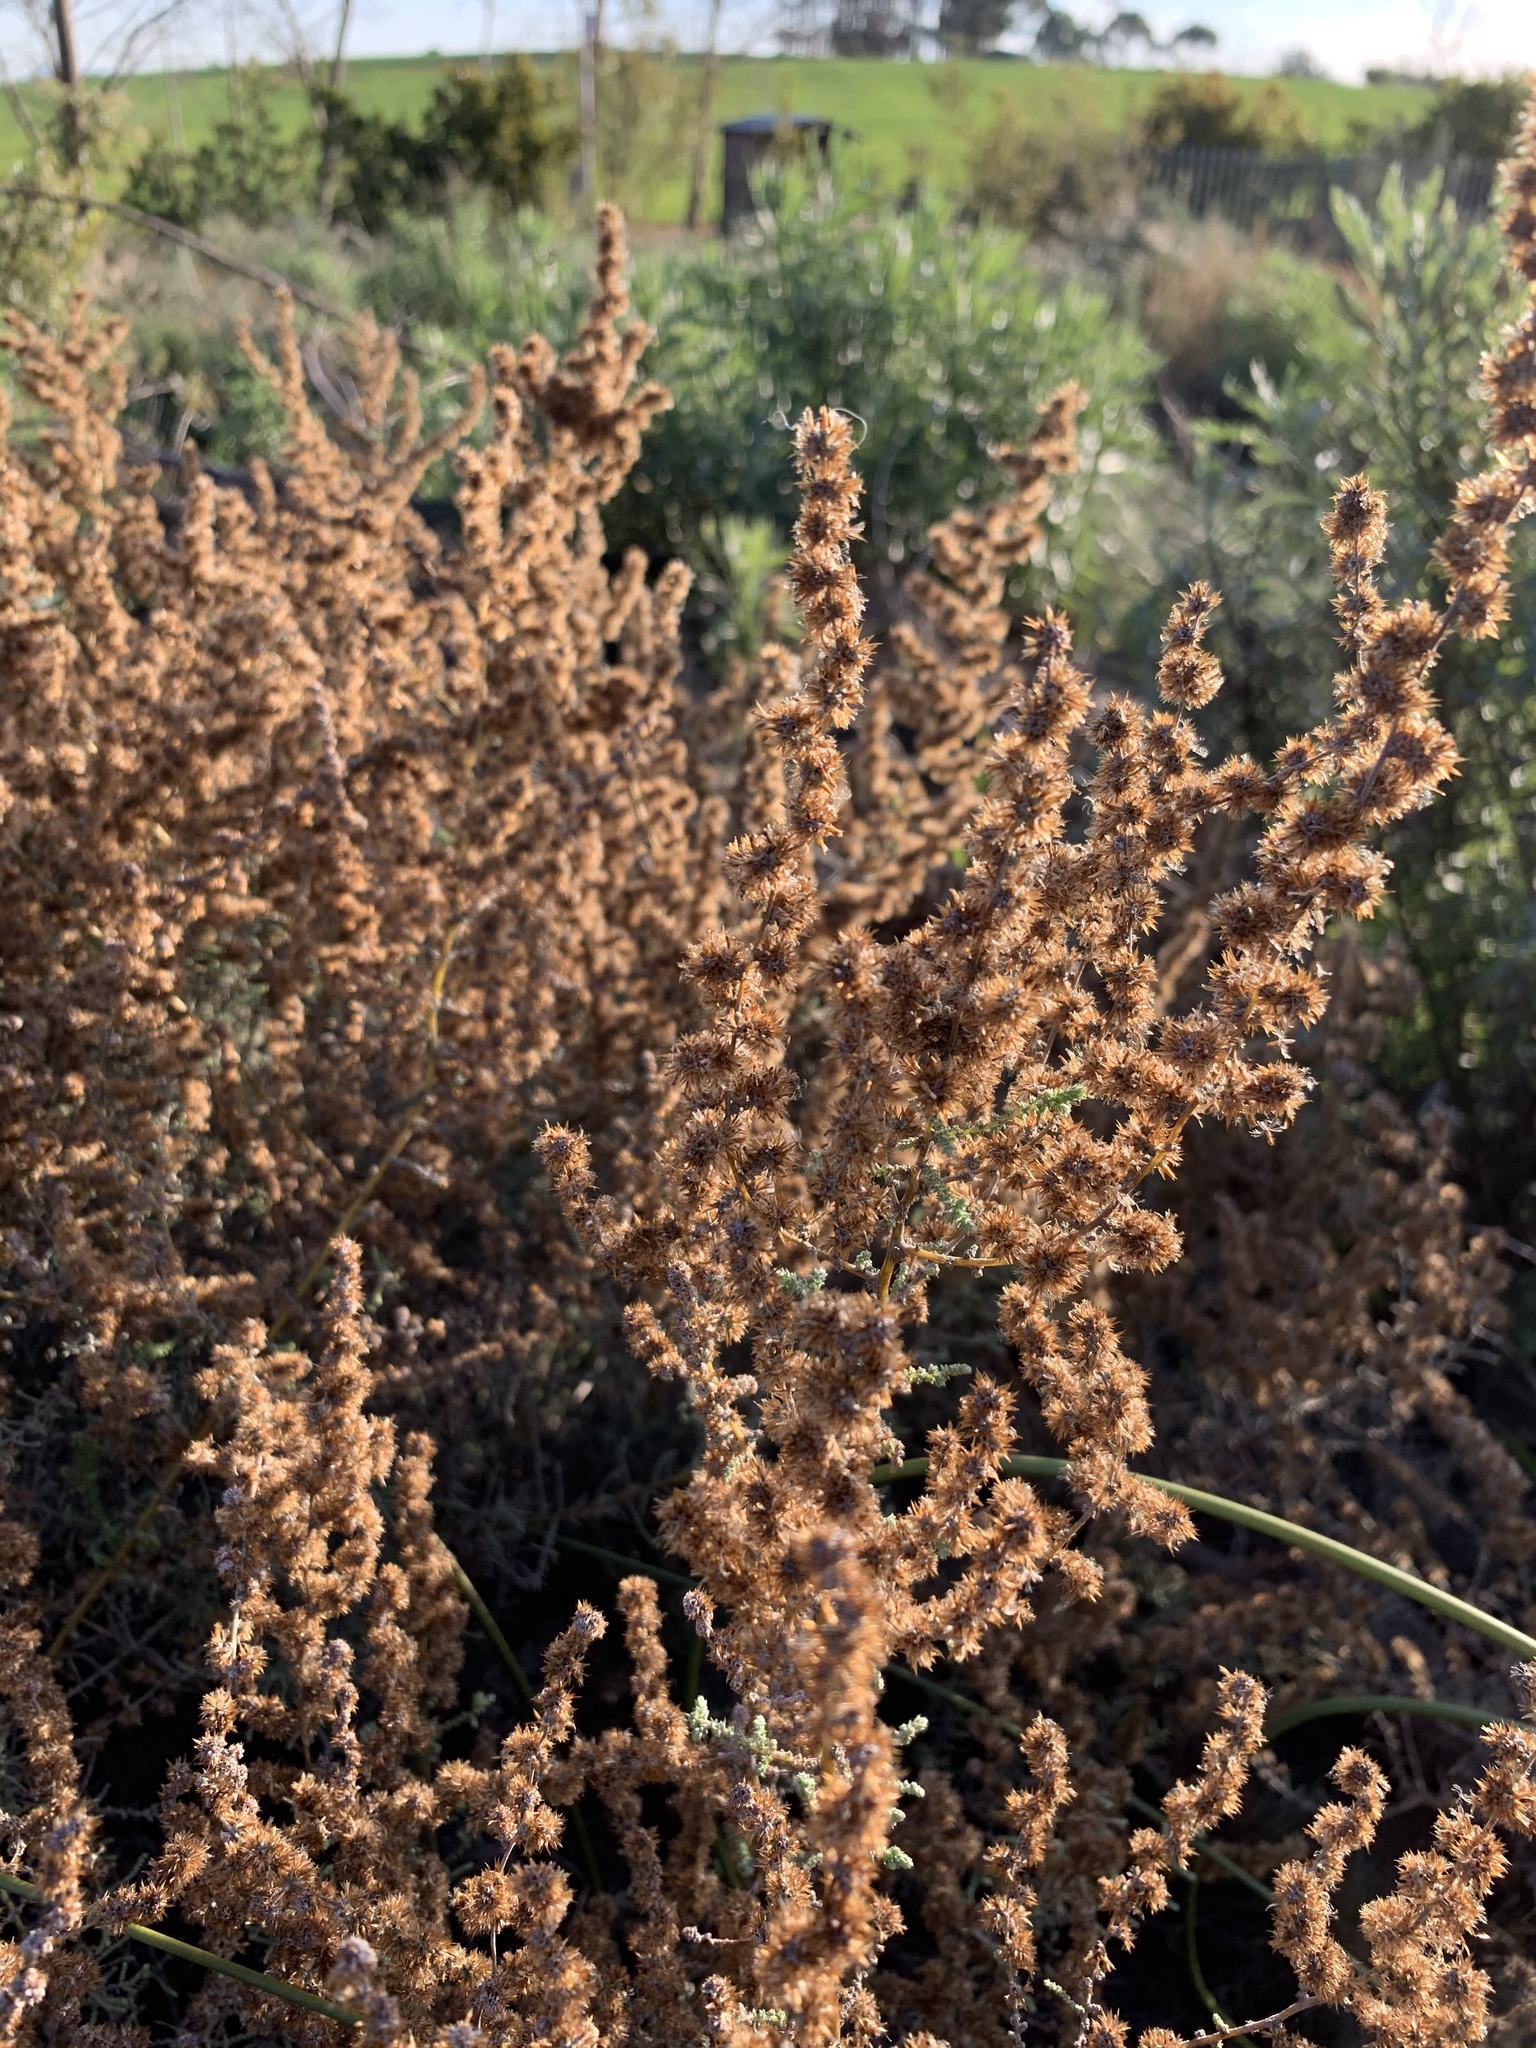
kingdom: Plantae
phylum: Tracheophyta
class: Magnoliopsida
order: Asterales
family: Asteraceae
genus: Seriphium
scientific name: Seriphium plumosum
